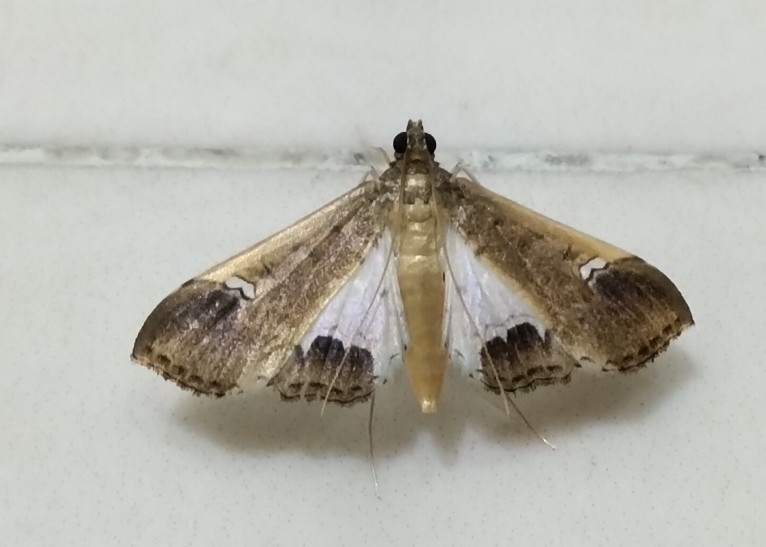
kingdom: Animalia
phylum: Arthropoda
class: Insecta
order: Lepidoptera
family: Crambidae
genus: Maruca
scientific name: Maruca amboinalis
